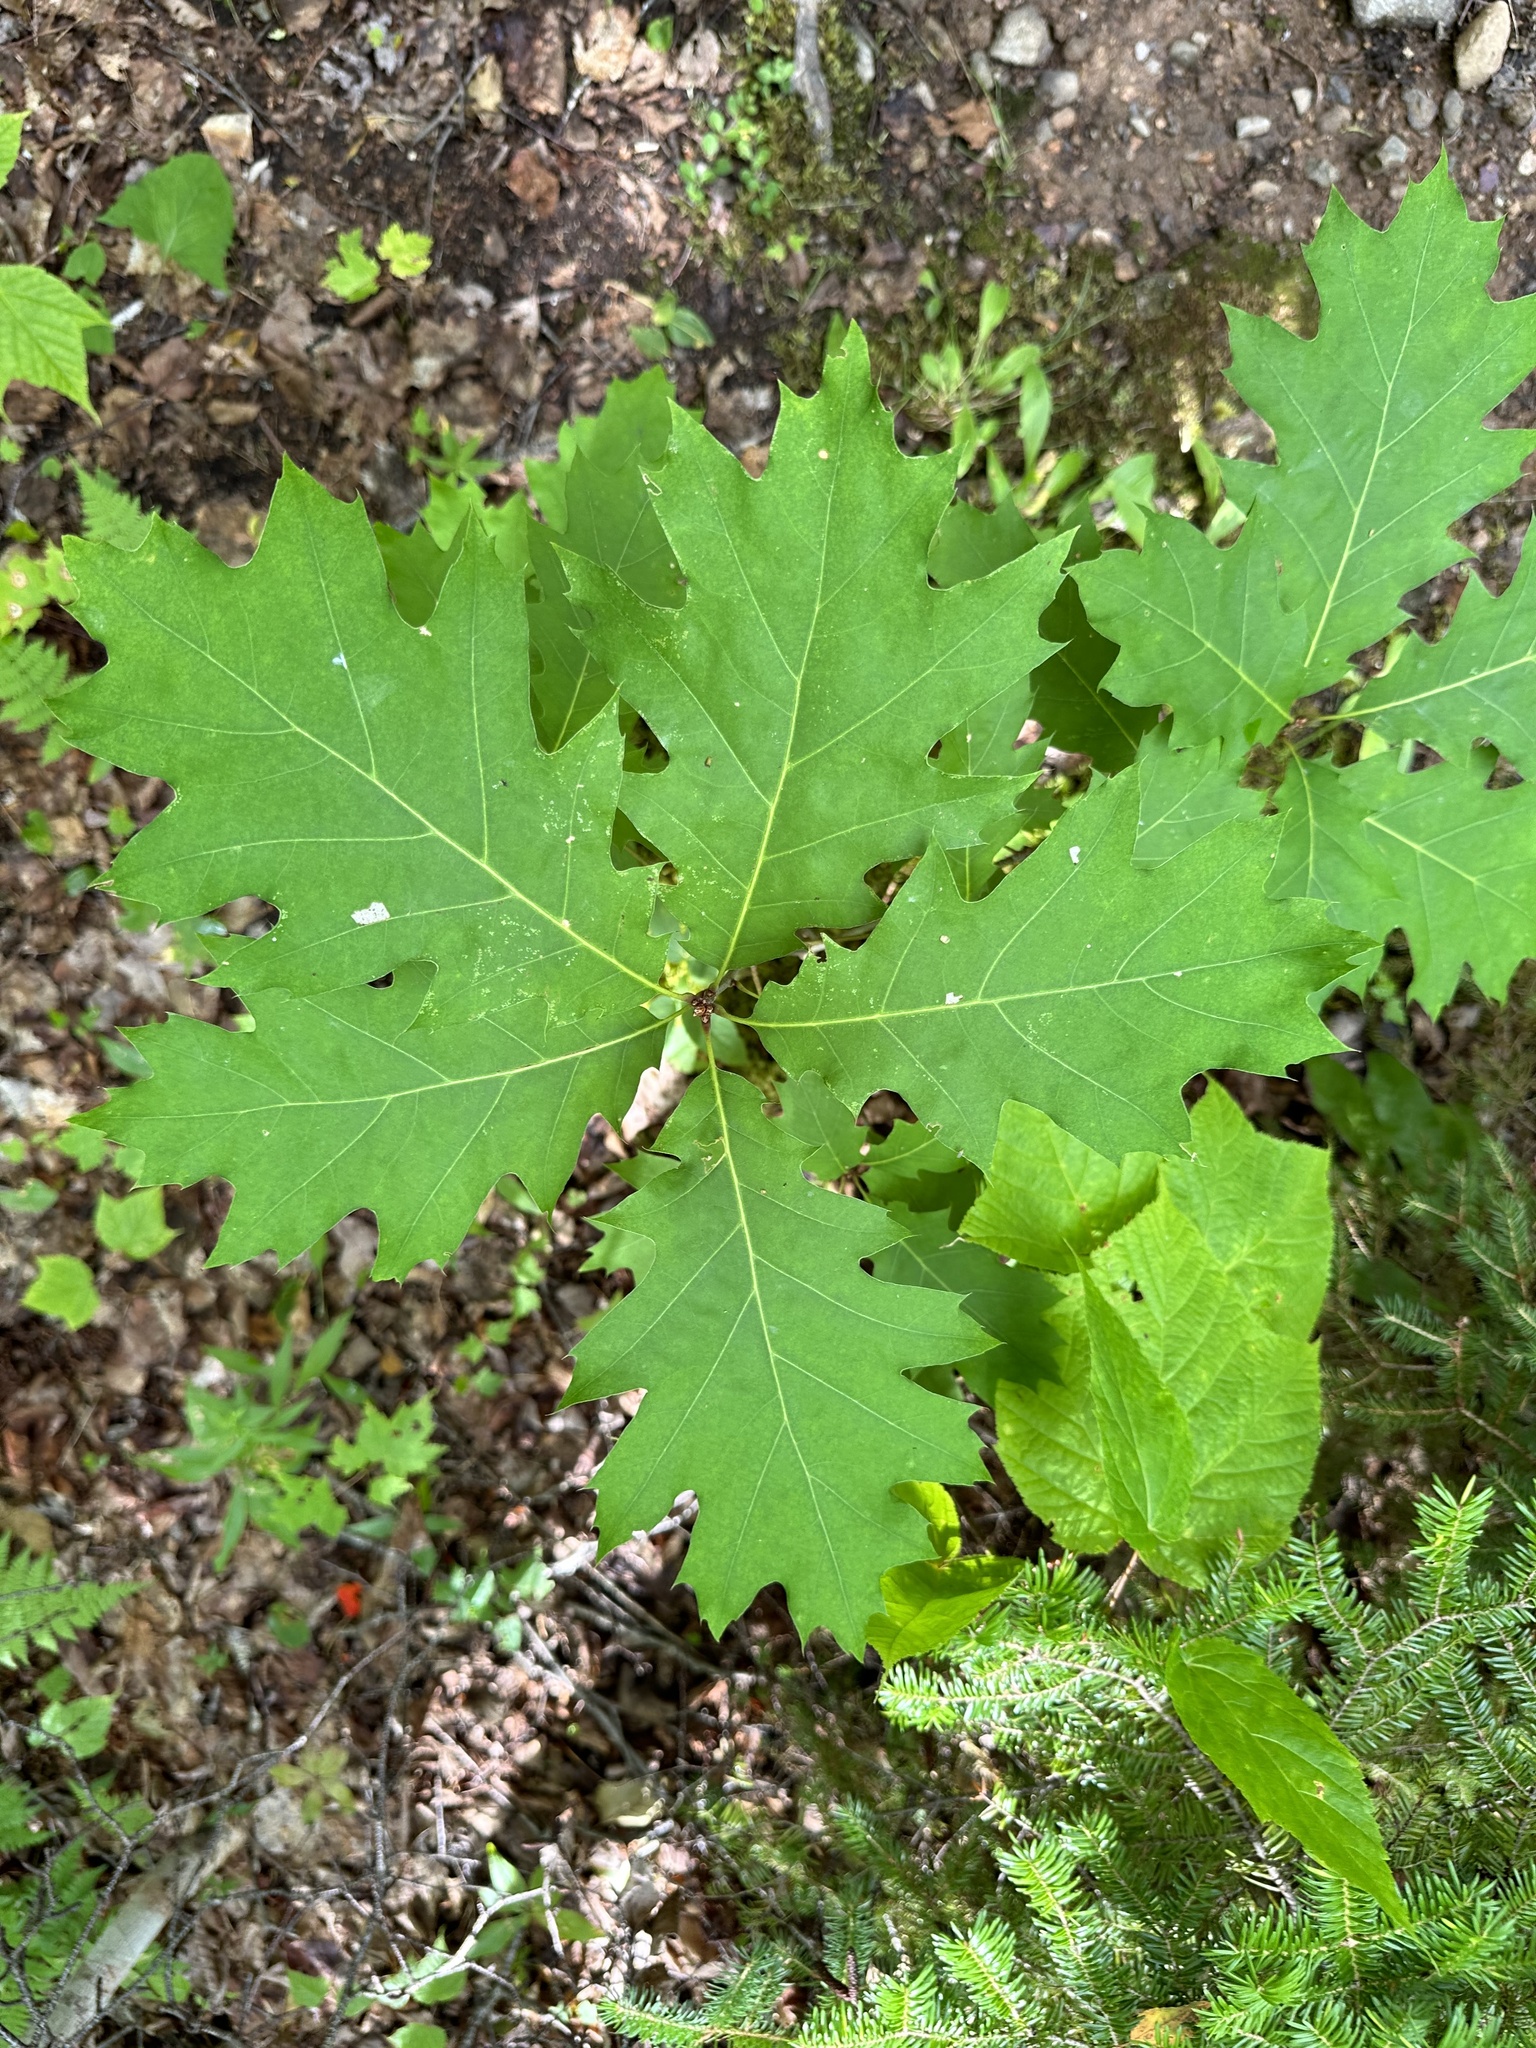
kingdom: Plantae
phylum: Tracheophyta
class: Magnoliopsida
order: Fagales
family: Fagaceae
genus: Quercus
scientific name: Quercus rubra
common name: Red oak
